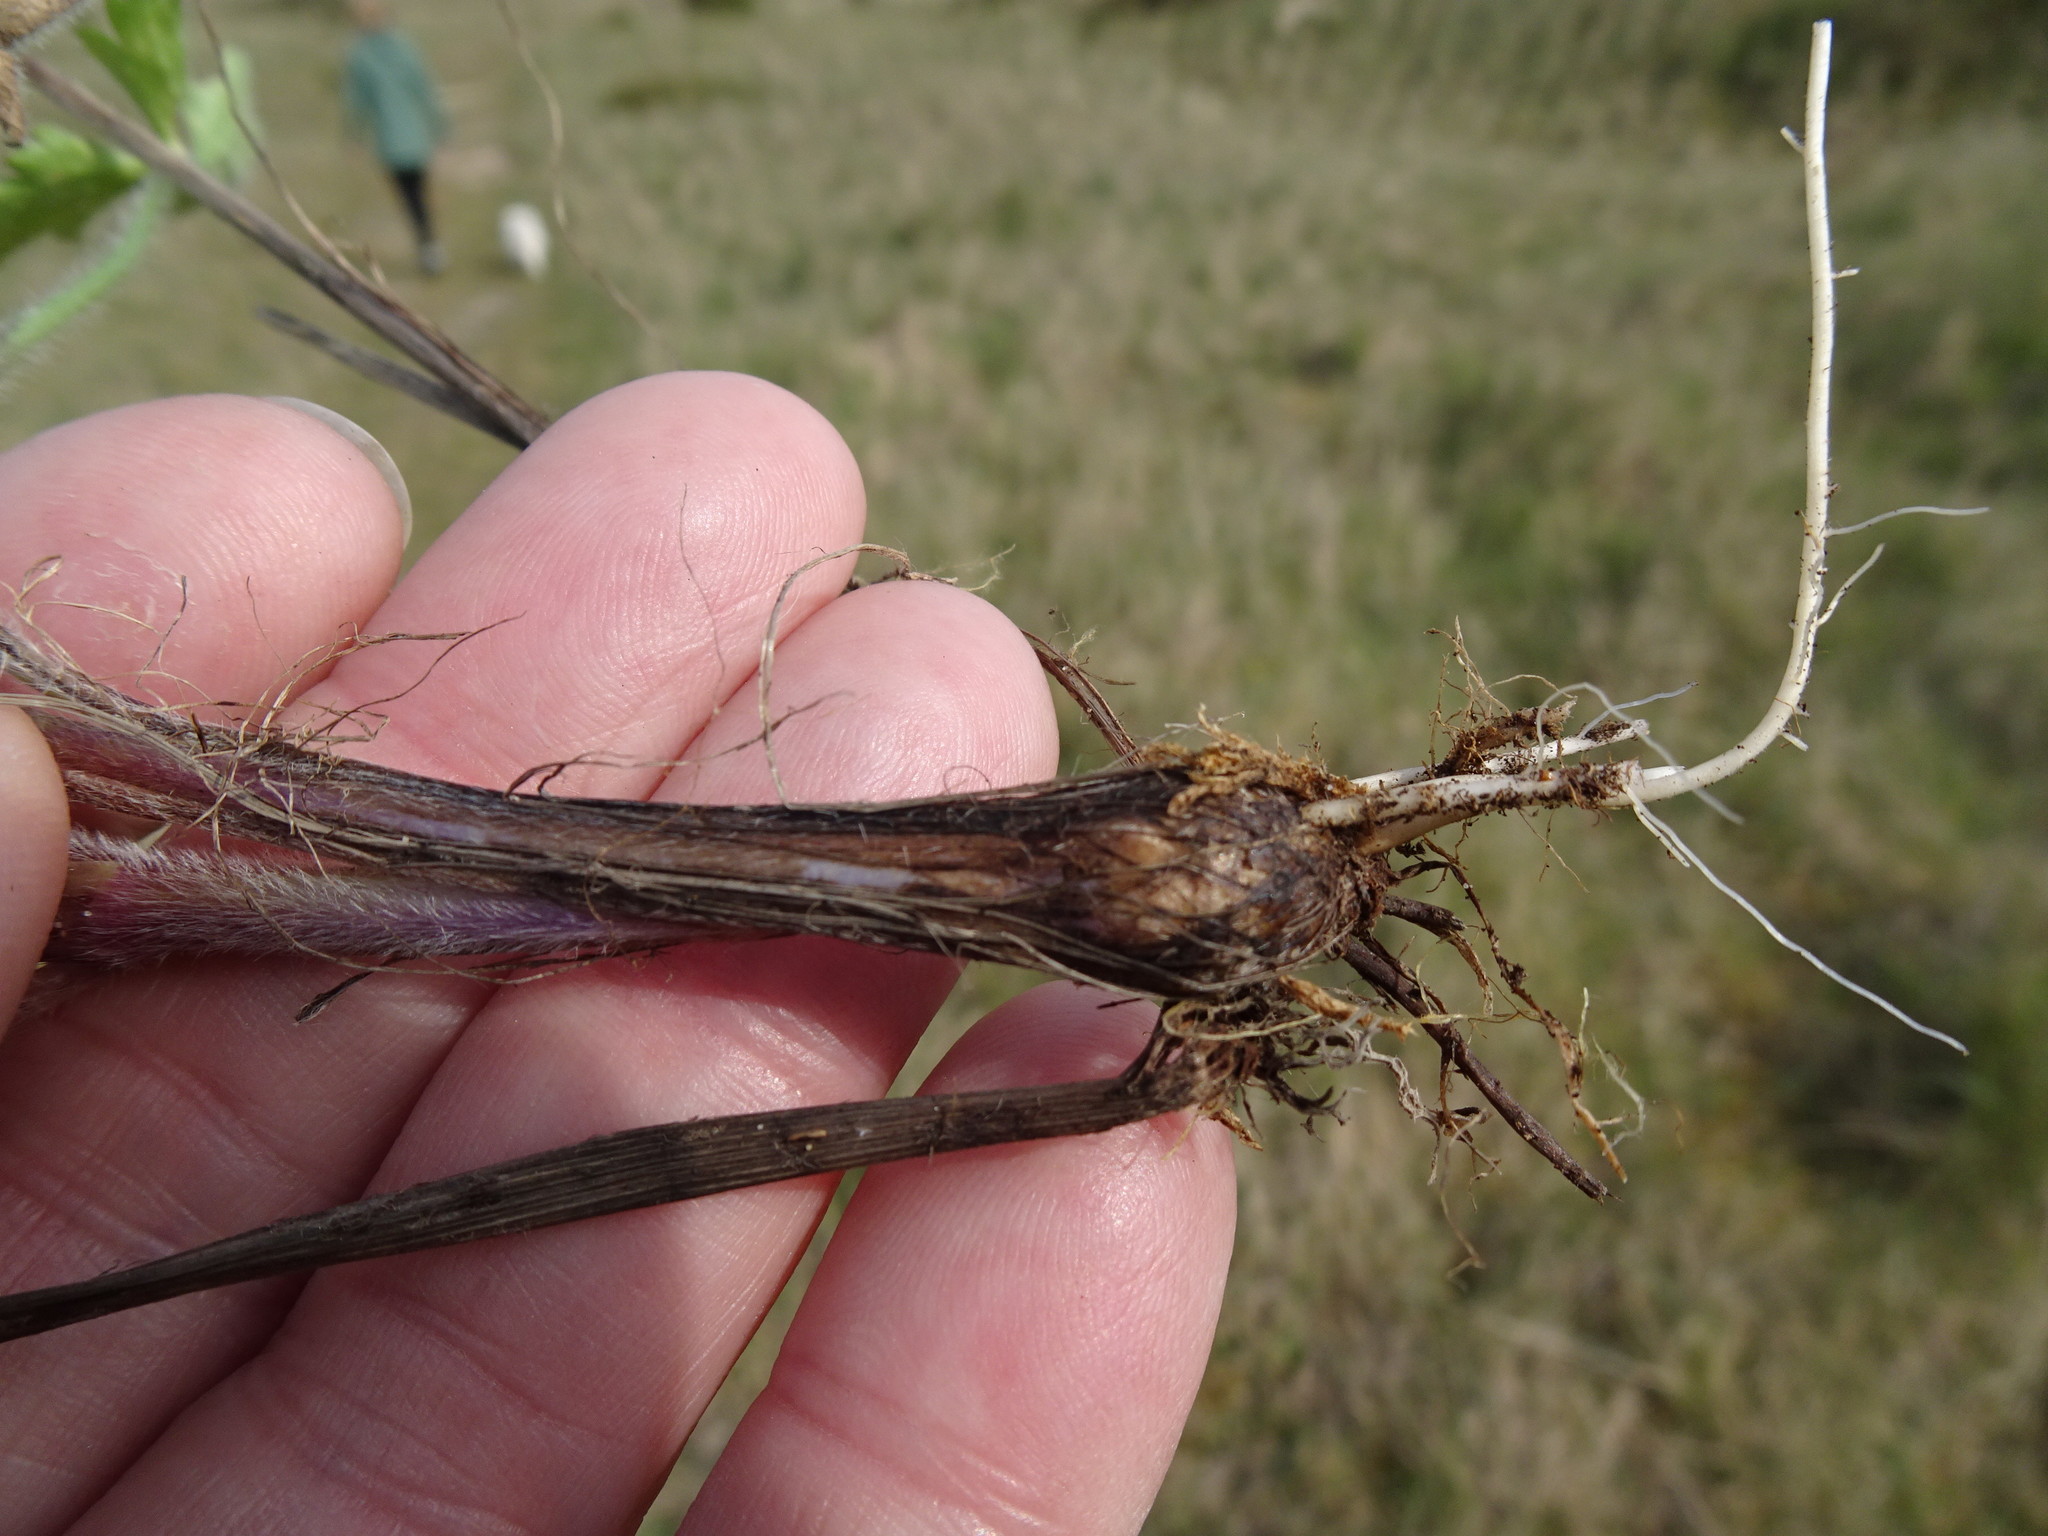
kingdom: Plantae
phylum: Tracheophyta
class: Magnoliopsida
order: Ranunculales
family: Ranunculaceae
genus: Ranunculus
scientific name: Ranunculus bulbosus
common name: Bulbous buttercup
